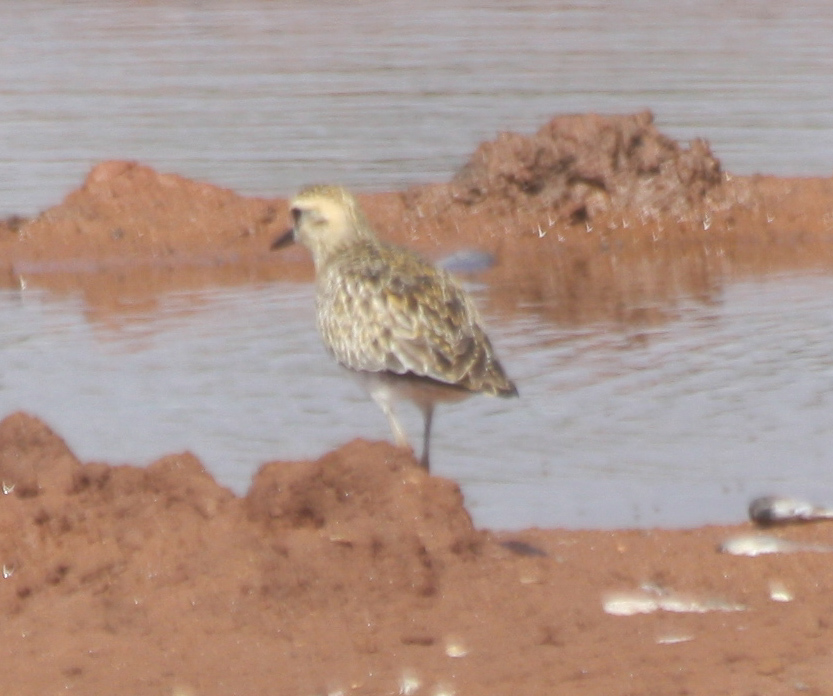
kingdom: Animalia
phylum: Chordata
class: Aves
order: Charadriiformes
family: Charadriidae
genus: Pluvialis
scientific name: Pluvialis fulva
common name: Pacific golden plover
